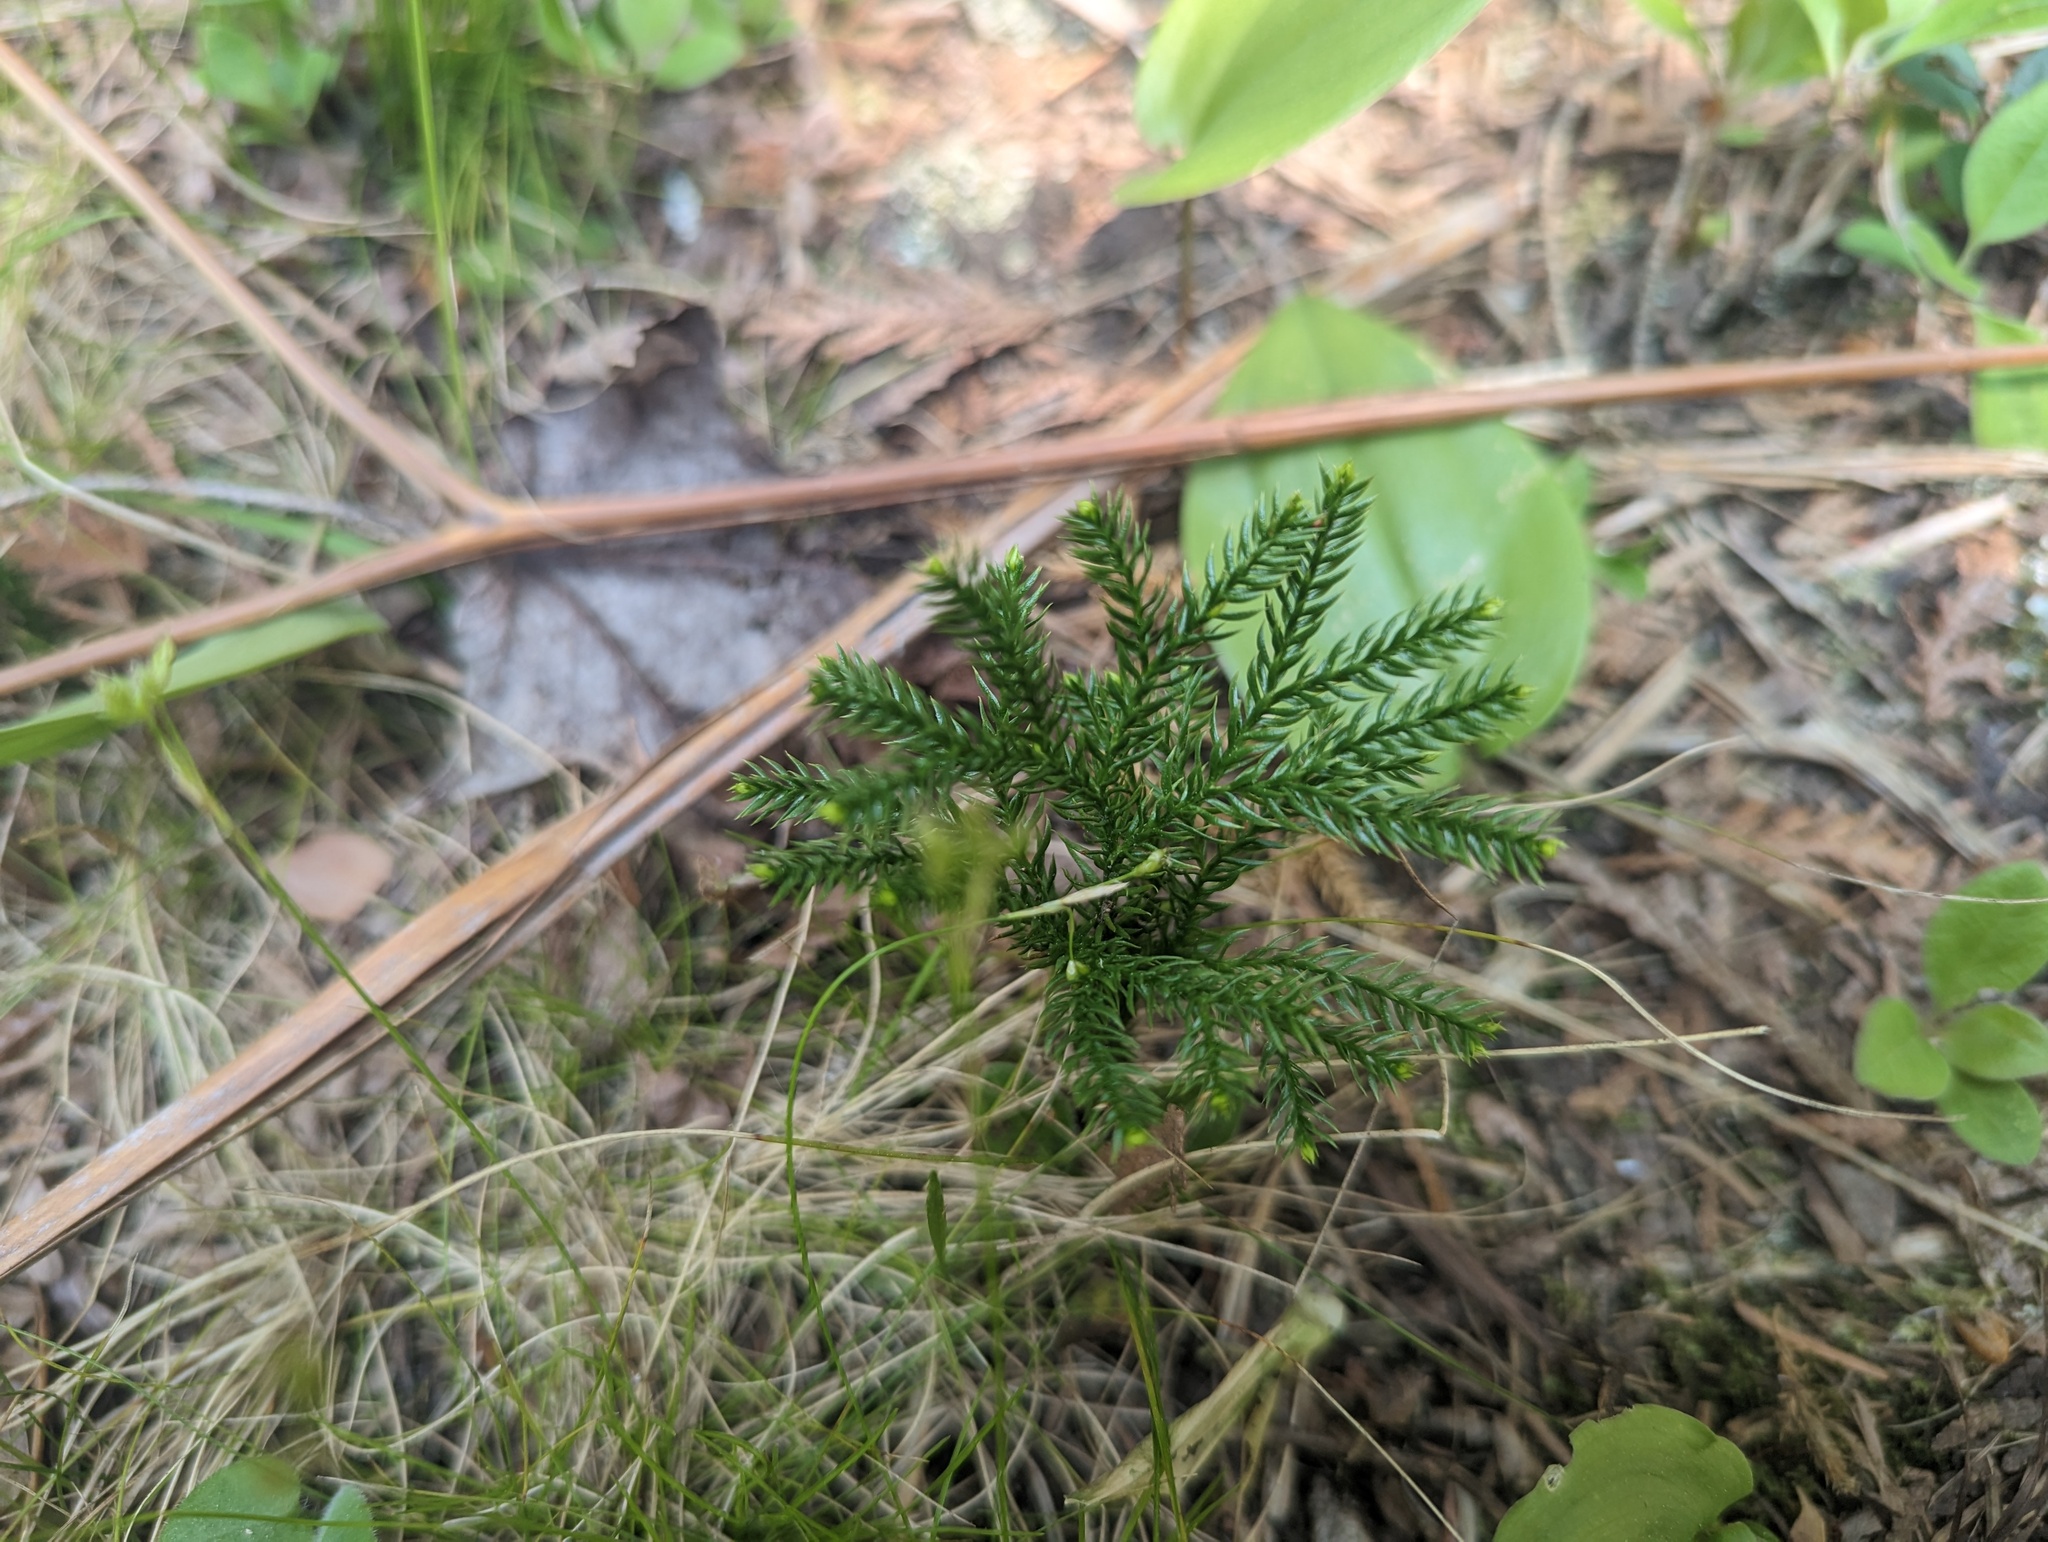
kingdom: Plantae
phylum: Tracheophyta
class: Lycopodiopsida
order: Lycopodiales
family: Lycopodiaceae
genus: Dendrolycopodium
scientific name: Dendrolycopodium dendroideum
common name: Northern tree-clubmoss
